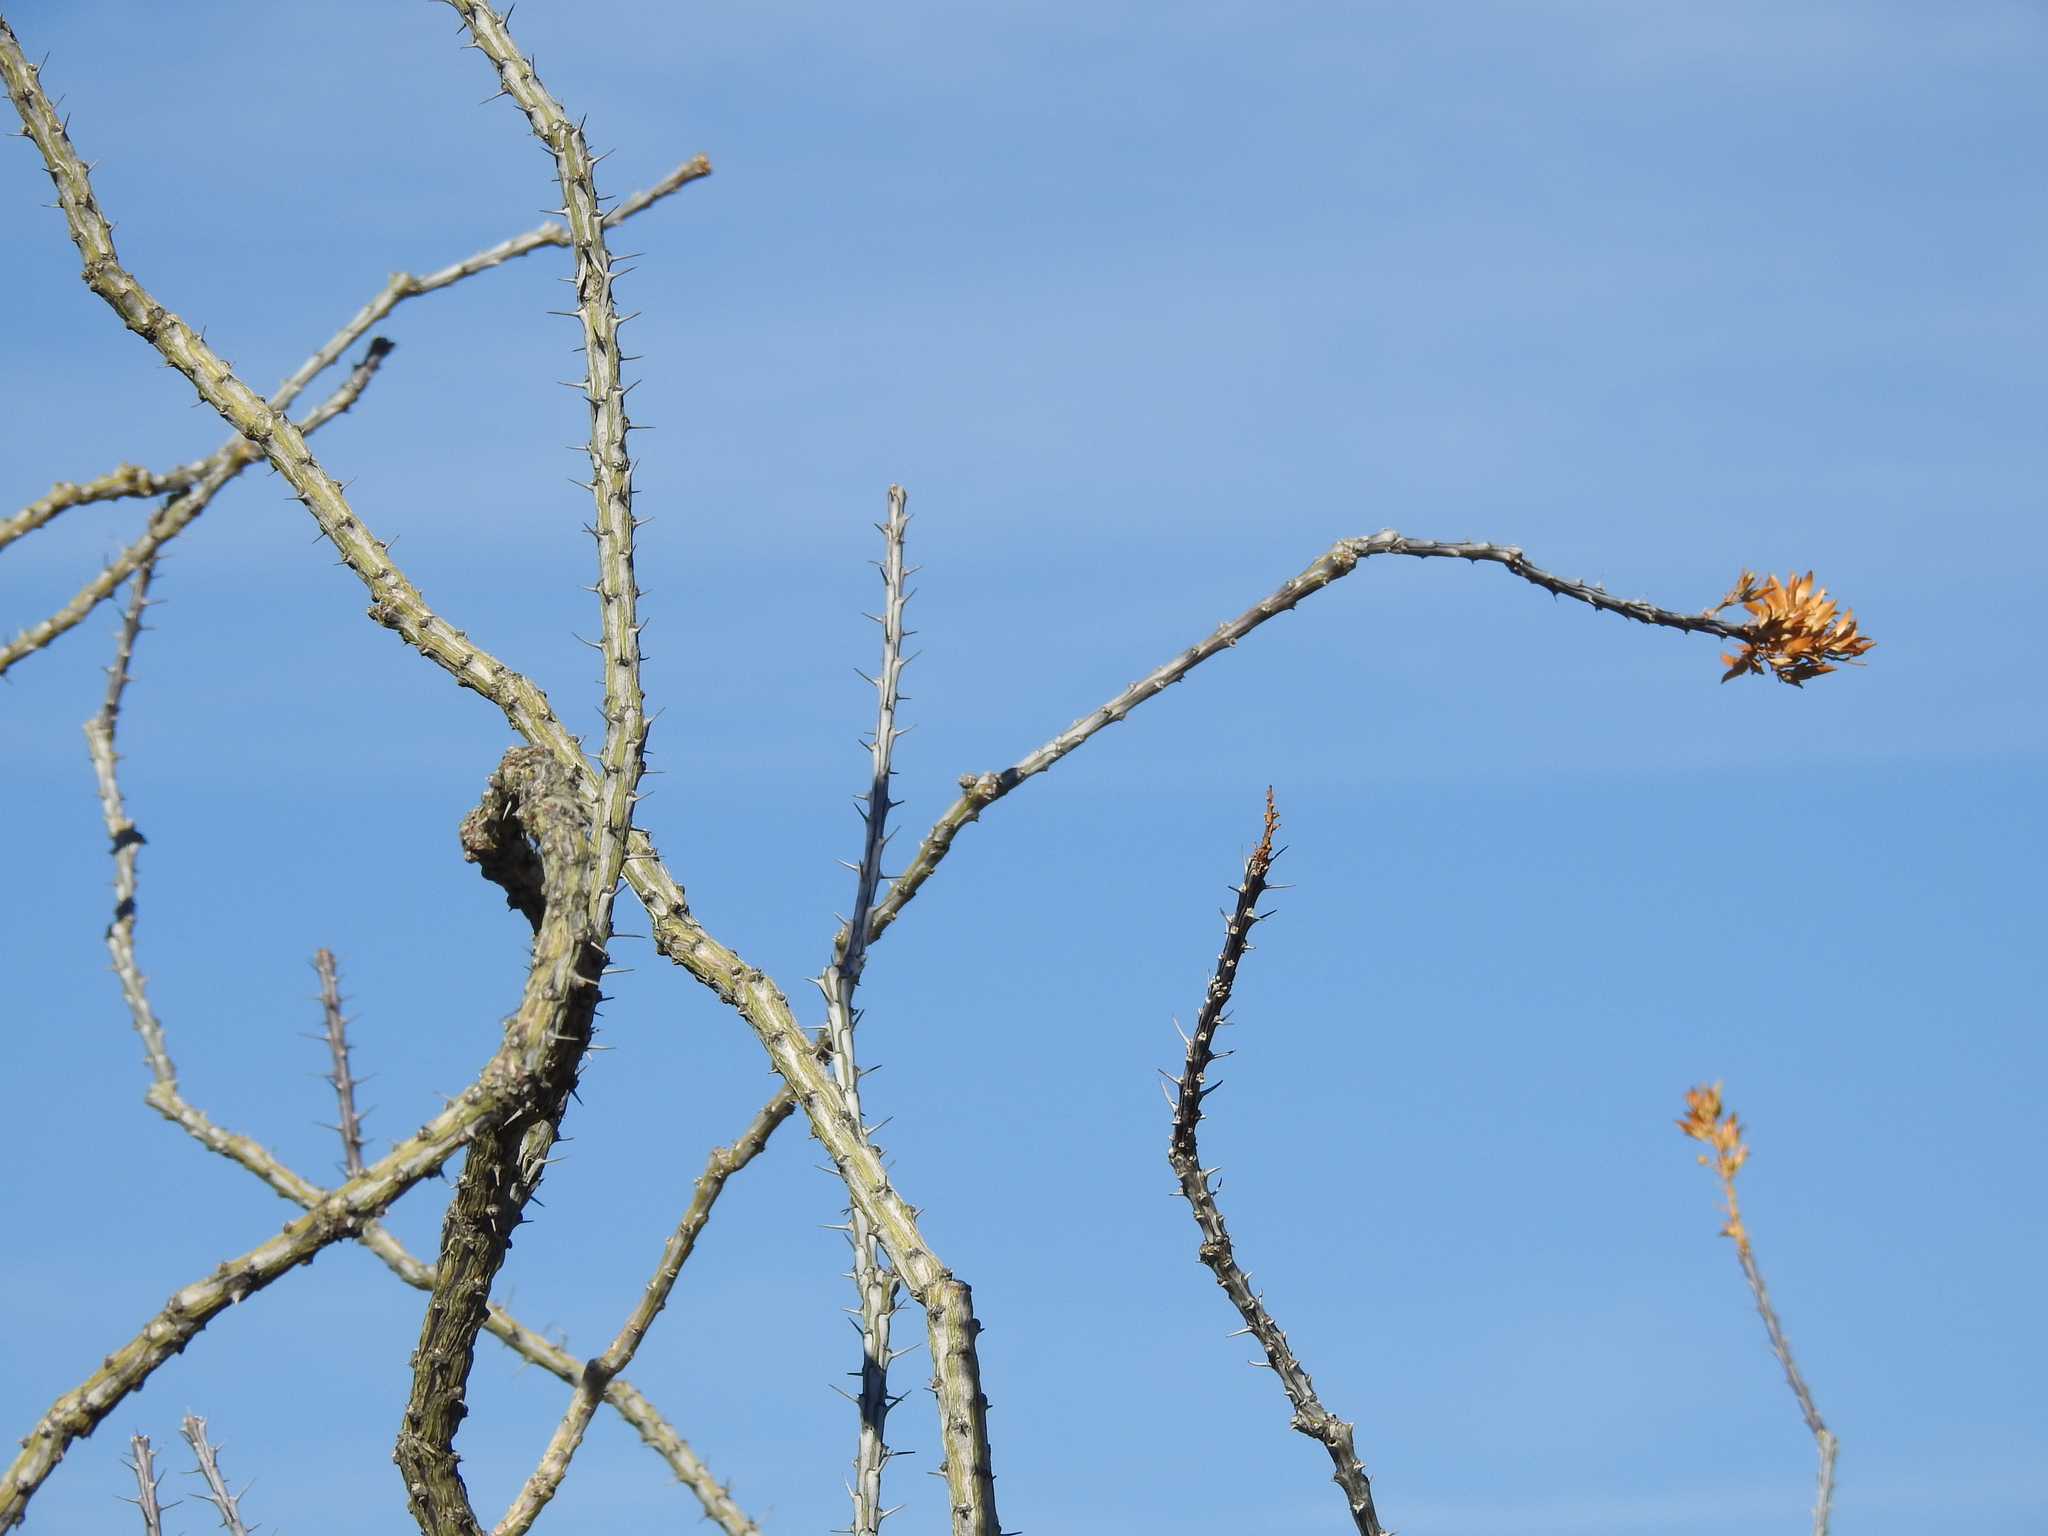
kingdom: Plantae
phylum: Tracheophyta
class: Magnoliopsida
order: Ericales
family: Fouquieriaceae
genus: Fouquieria
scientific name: Fouquieria splendens
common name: Vine-cactus
